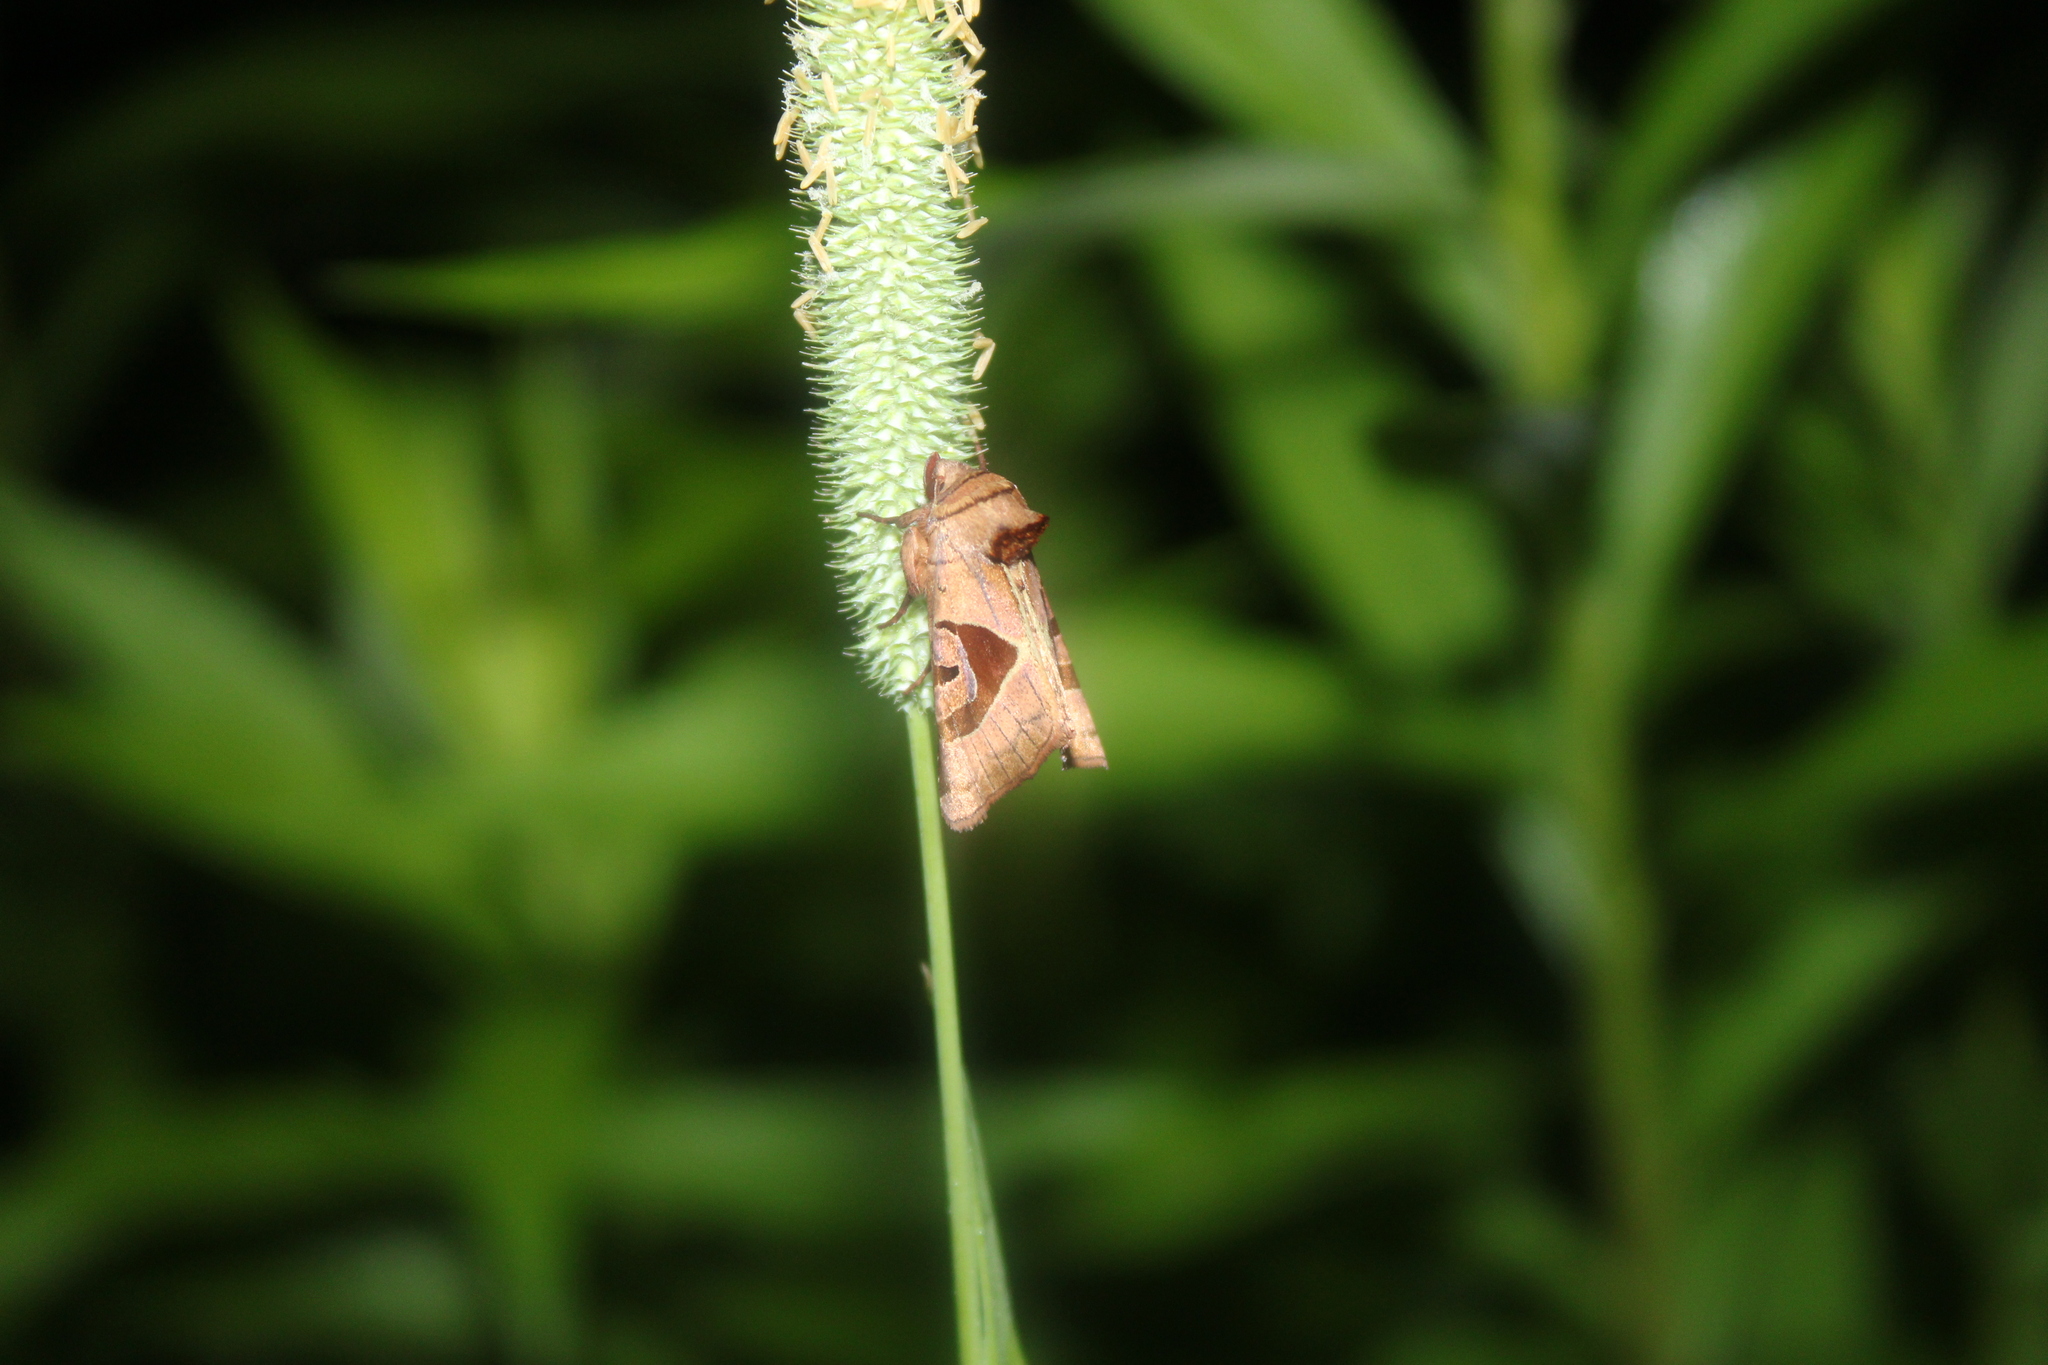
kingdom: Animalia
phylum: Arthropoda
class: Insecta
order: Lepidoptera
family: Noctuidae
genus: Conservula
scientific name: Conservula anodonta
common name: Sharp angle shades
